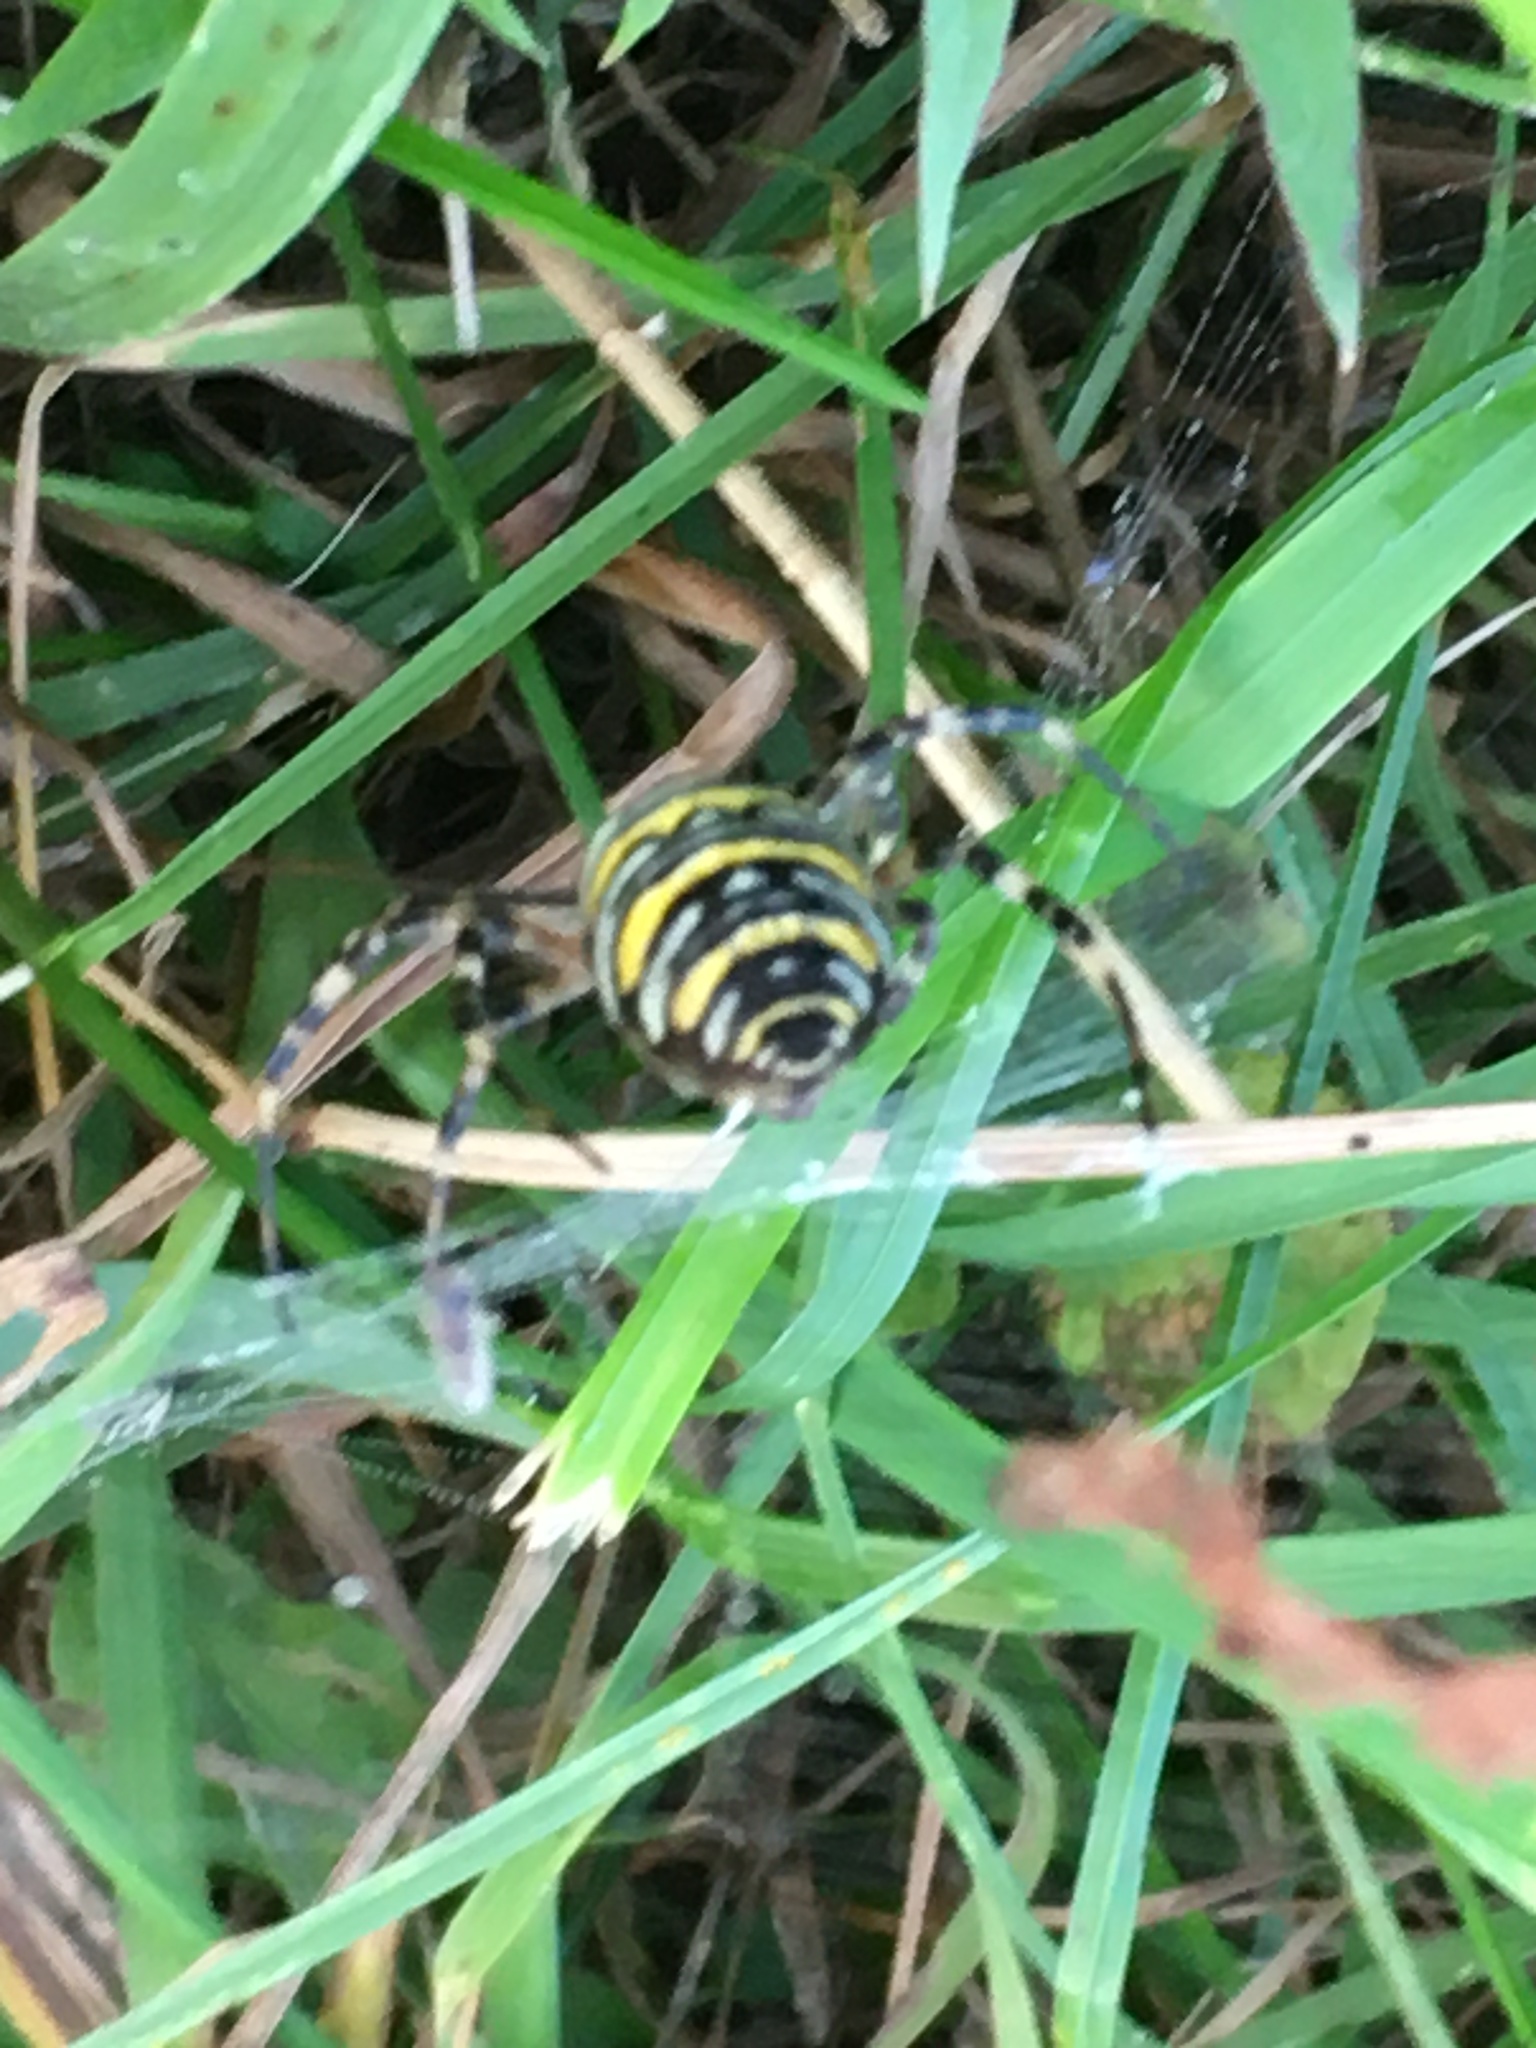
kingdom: Animalia
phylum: Arthropoda
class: Arachnida
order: Araneae
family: Araneidae
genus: Argiope
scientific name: Argiope bruennichi
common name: Wasp spider
